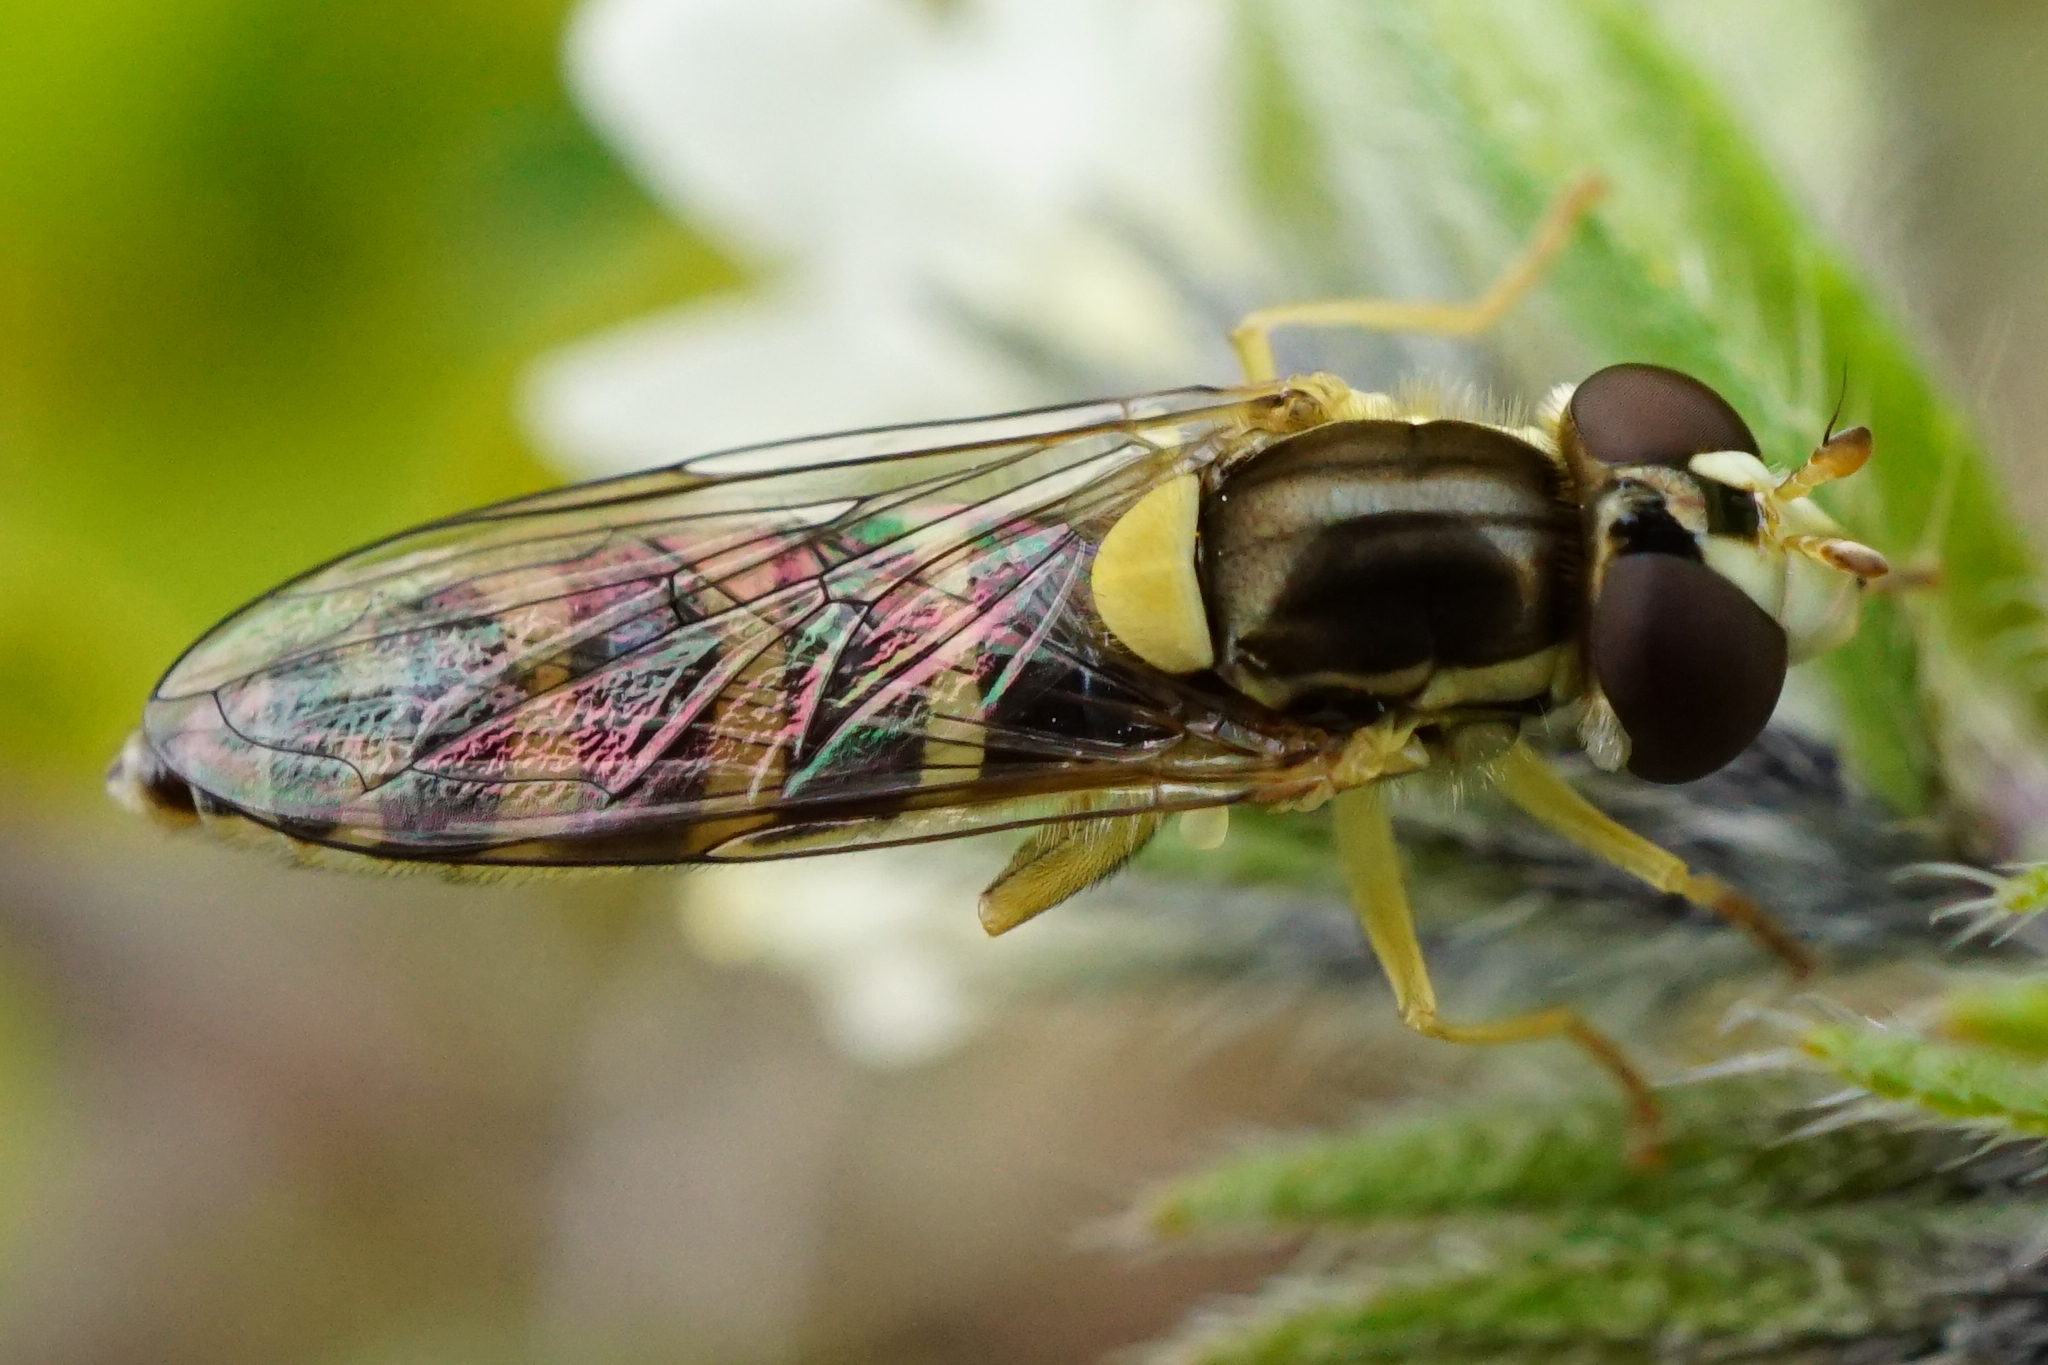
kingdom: Animalia
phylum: Arthropoda
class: Insecta
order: Diptera
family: Syrphidae
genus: Sphaerophoria
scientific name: Sphaerophoria
